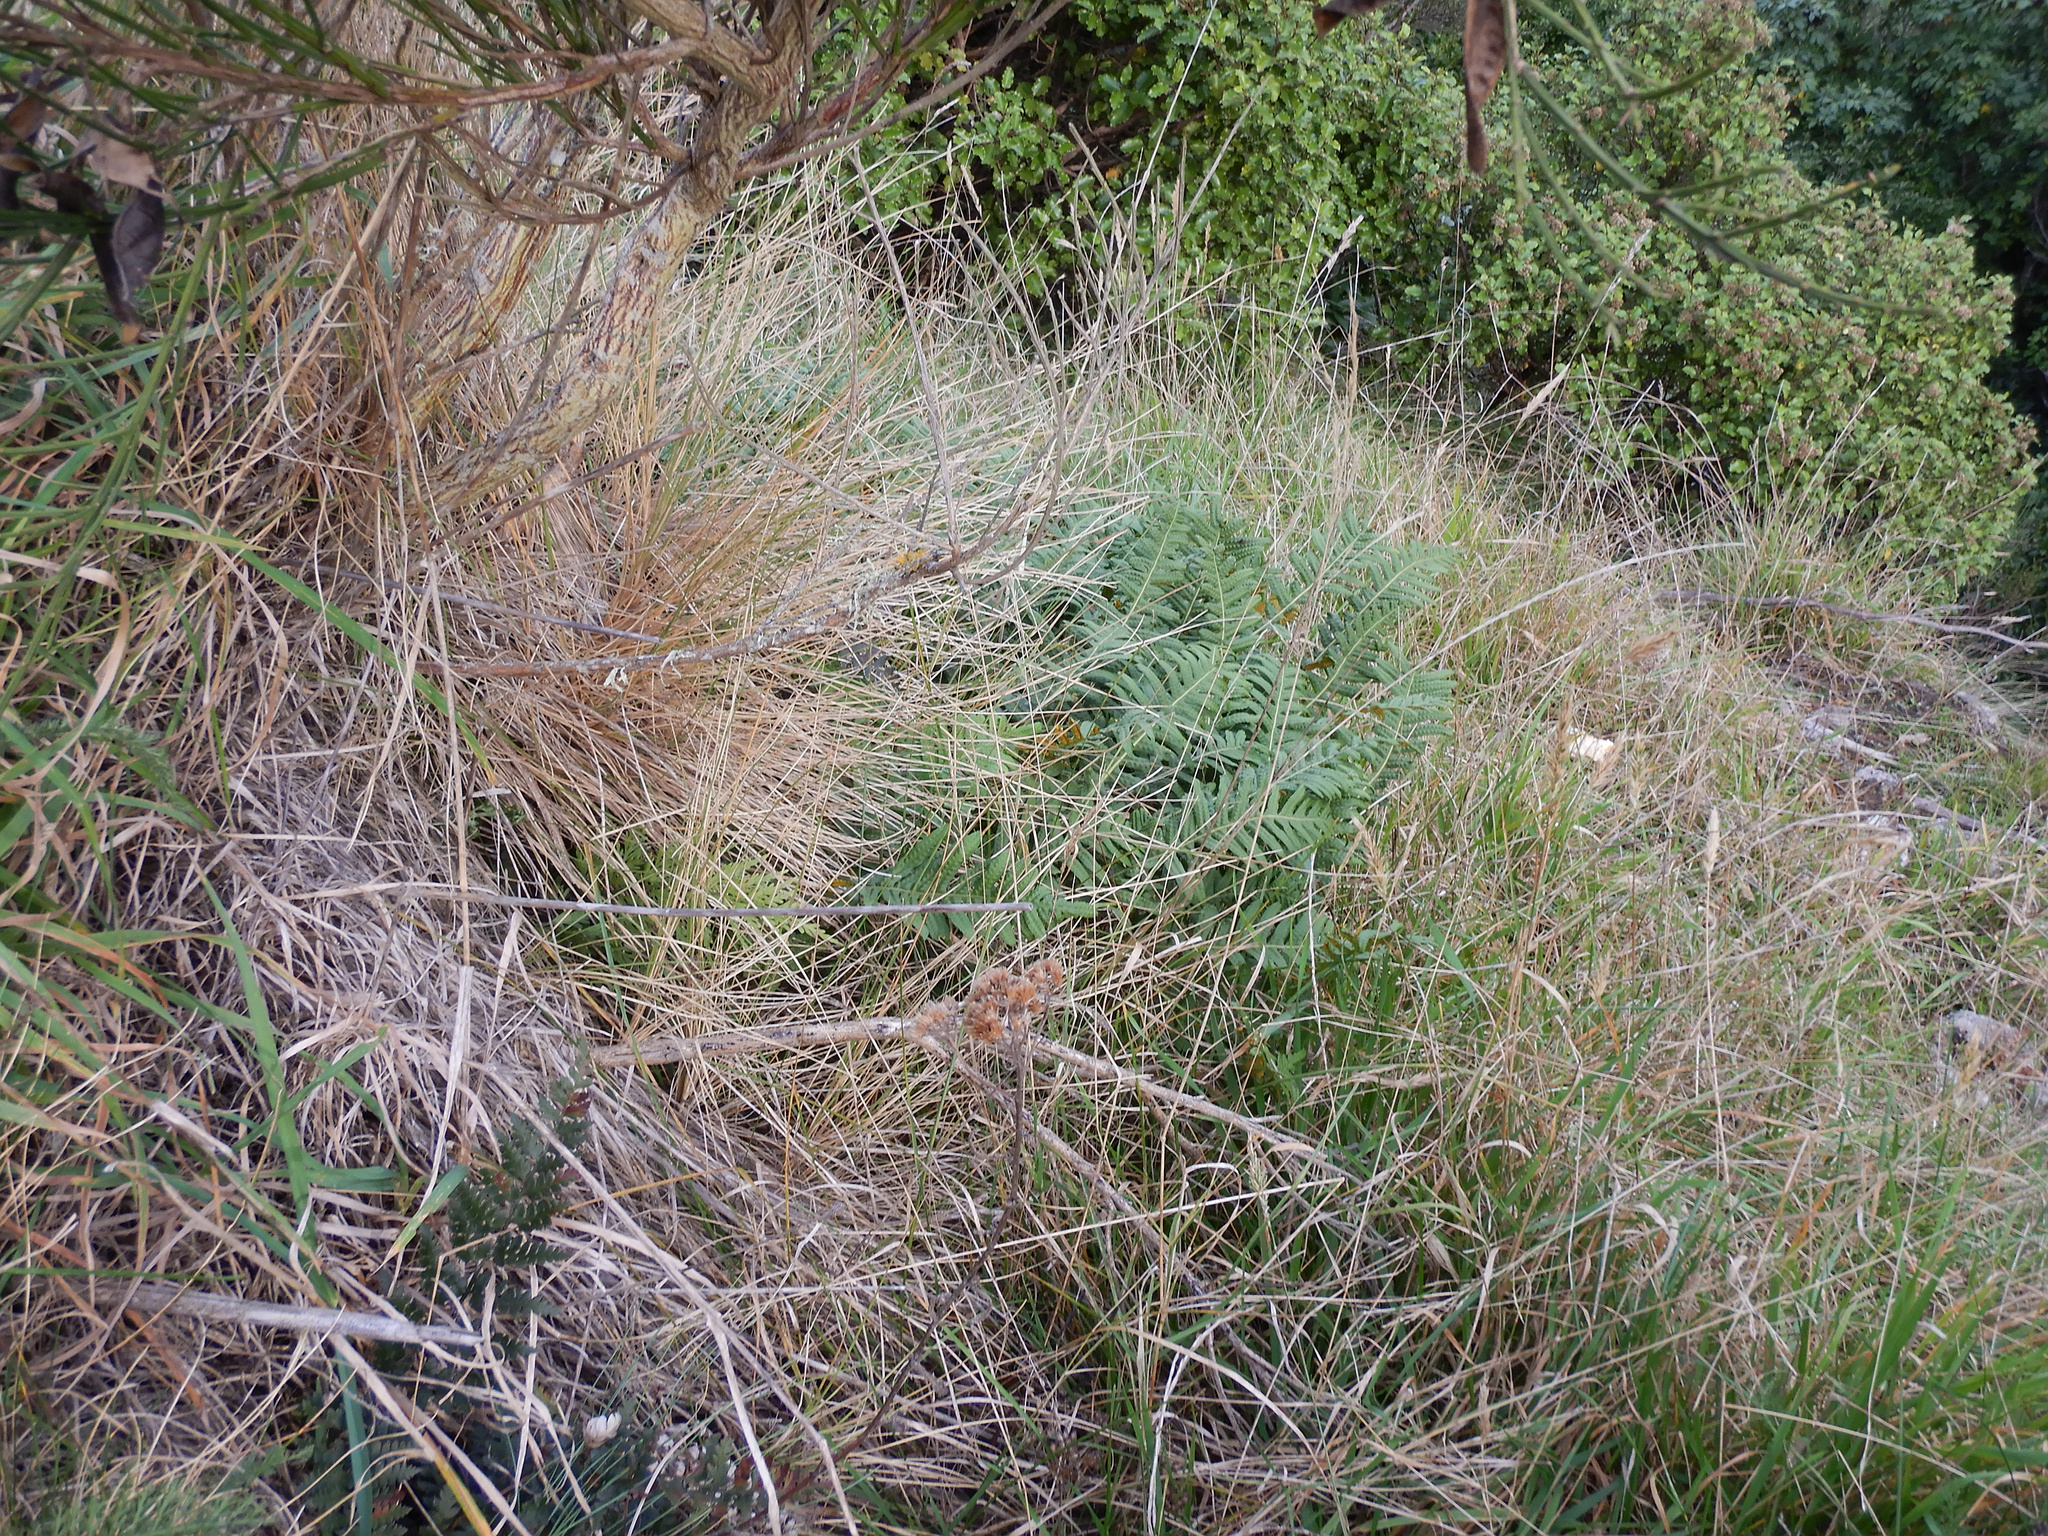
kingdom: Plantae
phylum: Tracheophyta
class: Polypodiopsida
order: Polypodiales
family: Polypodiaceae
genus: Polypodium
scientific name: Polypodium vulgare
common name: Common polypody
